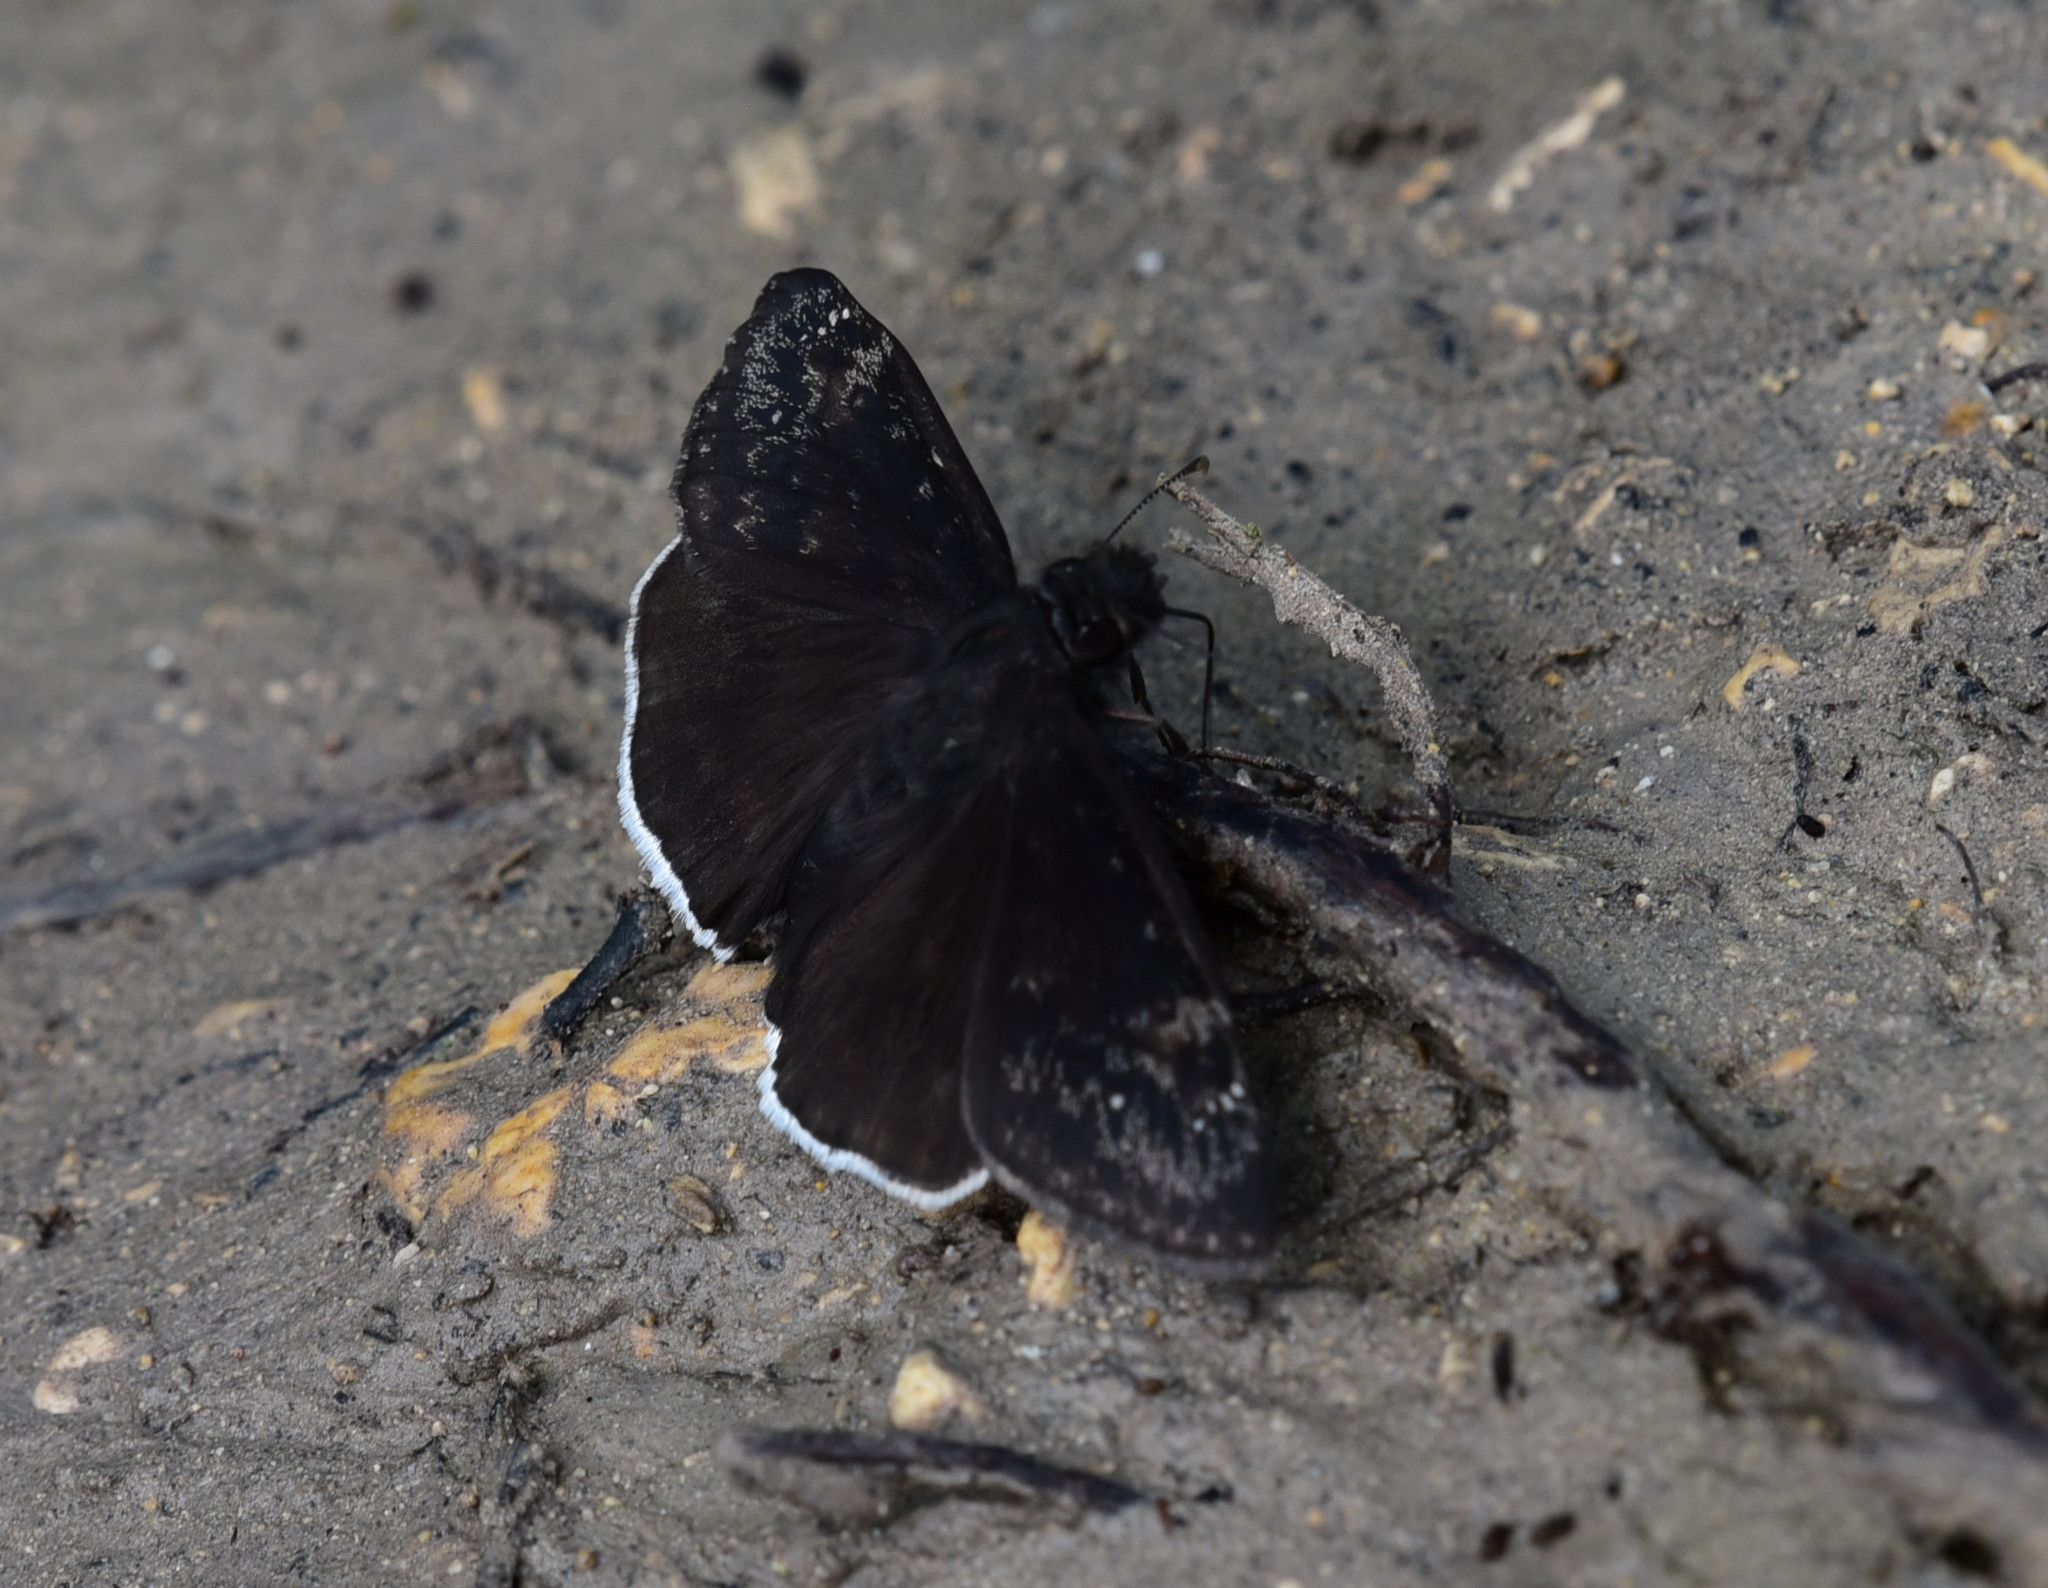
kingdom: Animalia
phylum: Arthropoda
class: Insecta
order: Lepidoptera
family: Hesperiidae
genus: Erynnis
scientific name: Erynnis funeralis
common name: Funereal duskywing
